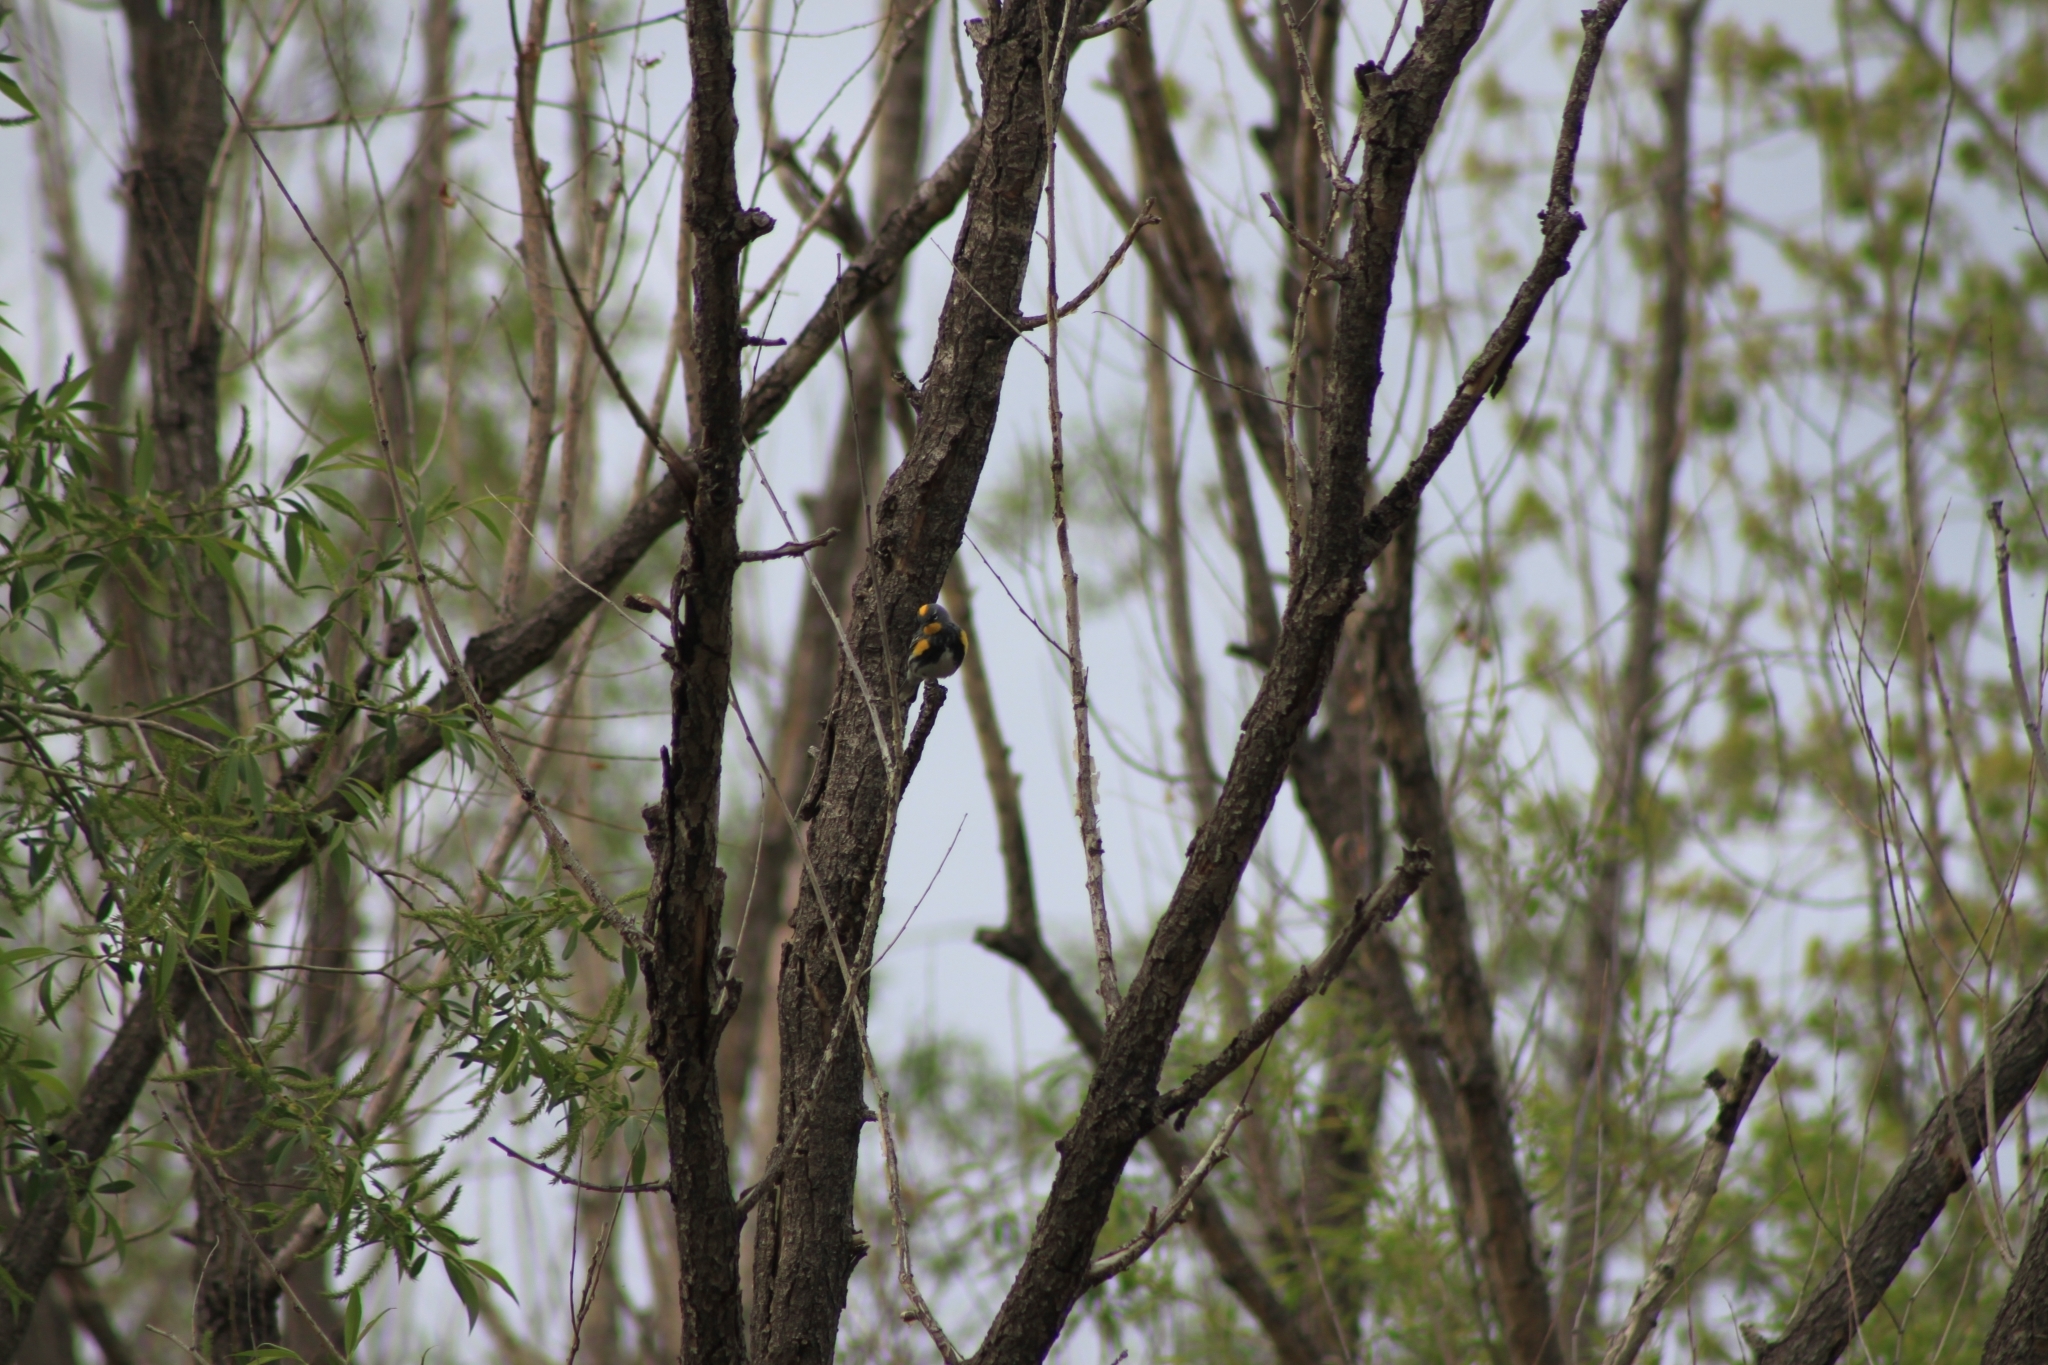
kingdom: Animalia
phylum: Chordata
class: Aves
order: Passeriformes
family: Parulidae
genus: Setophaga
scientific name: Setophaga coronata
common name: Myrtle warbler
